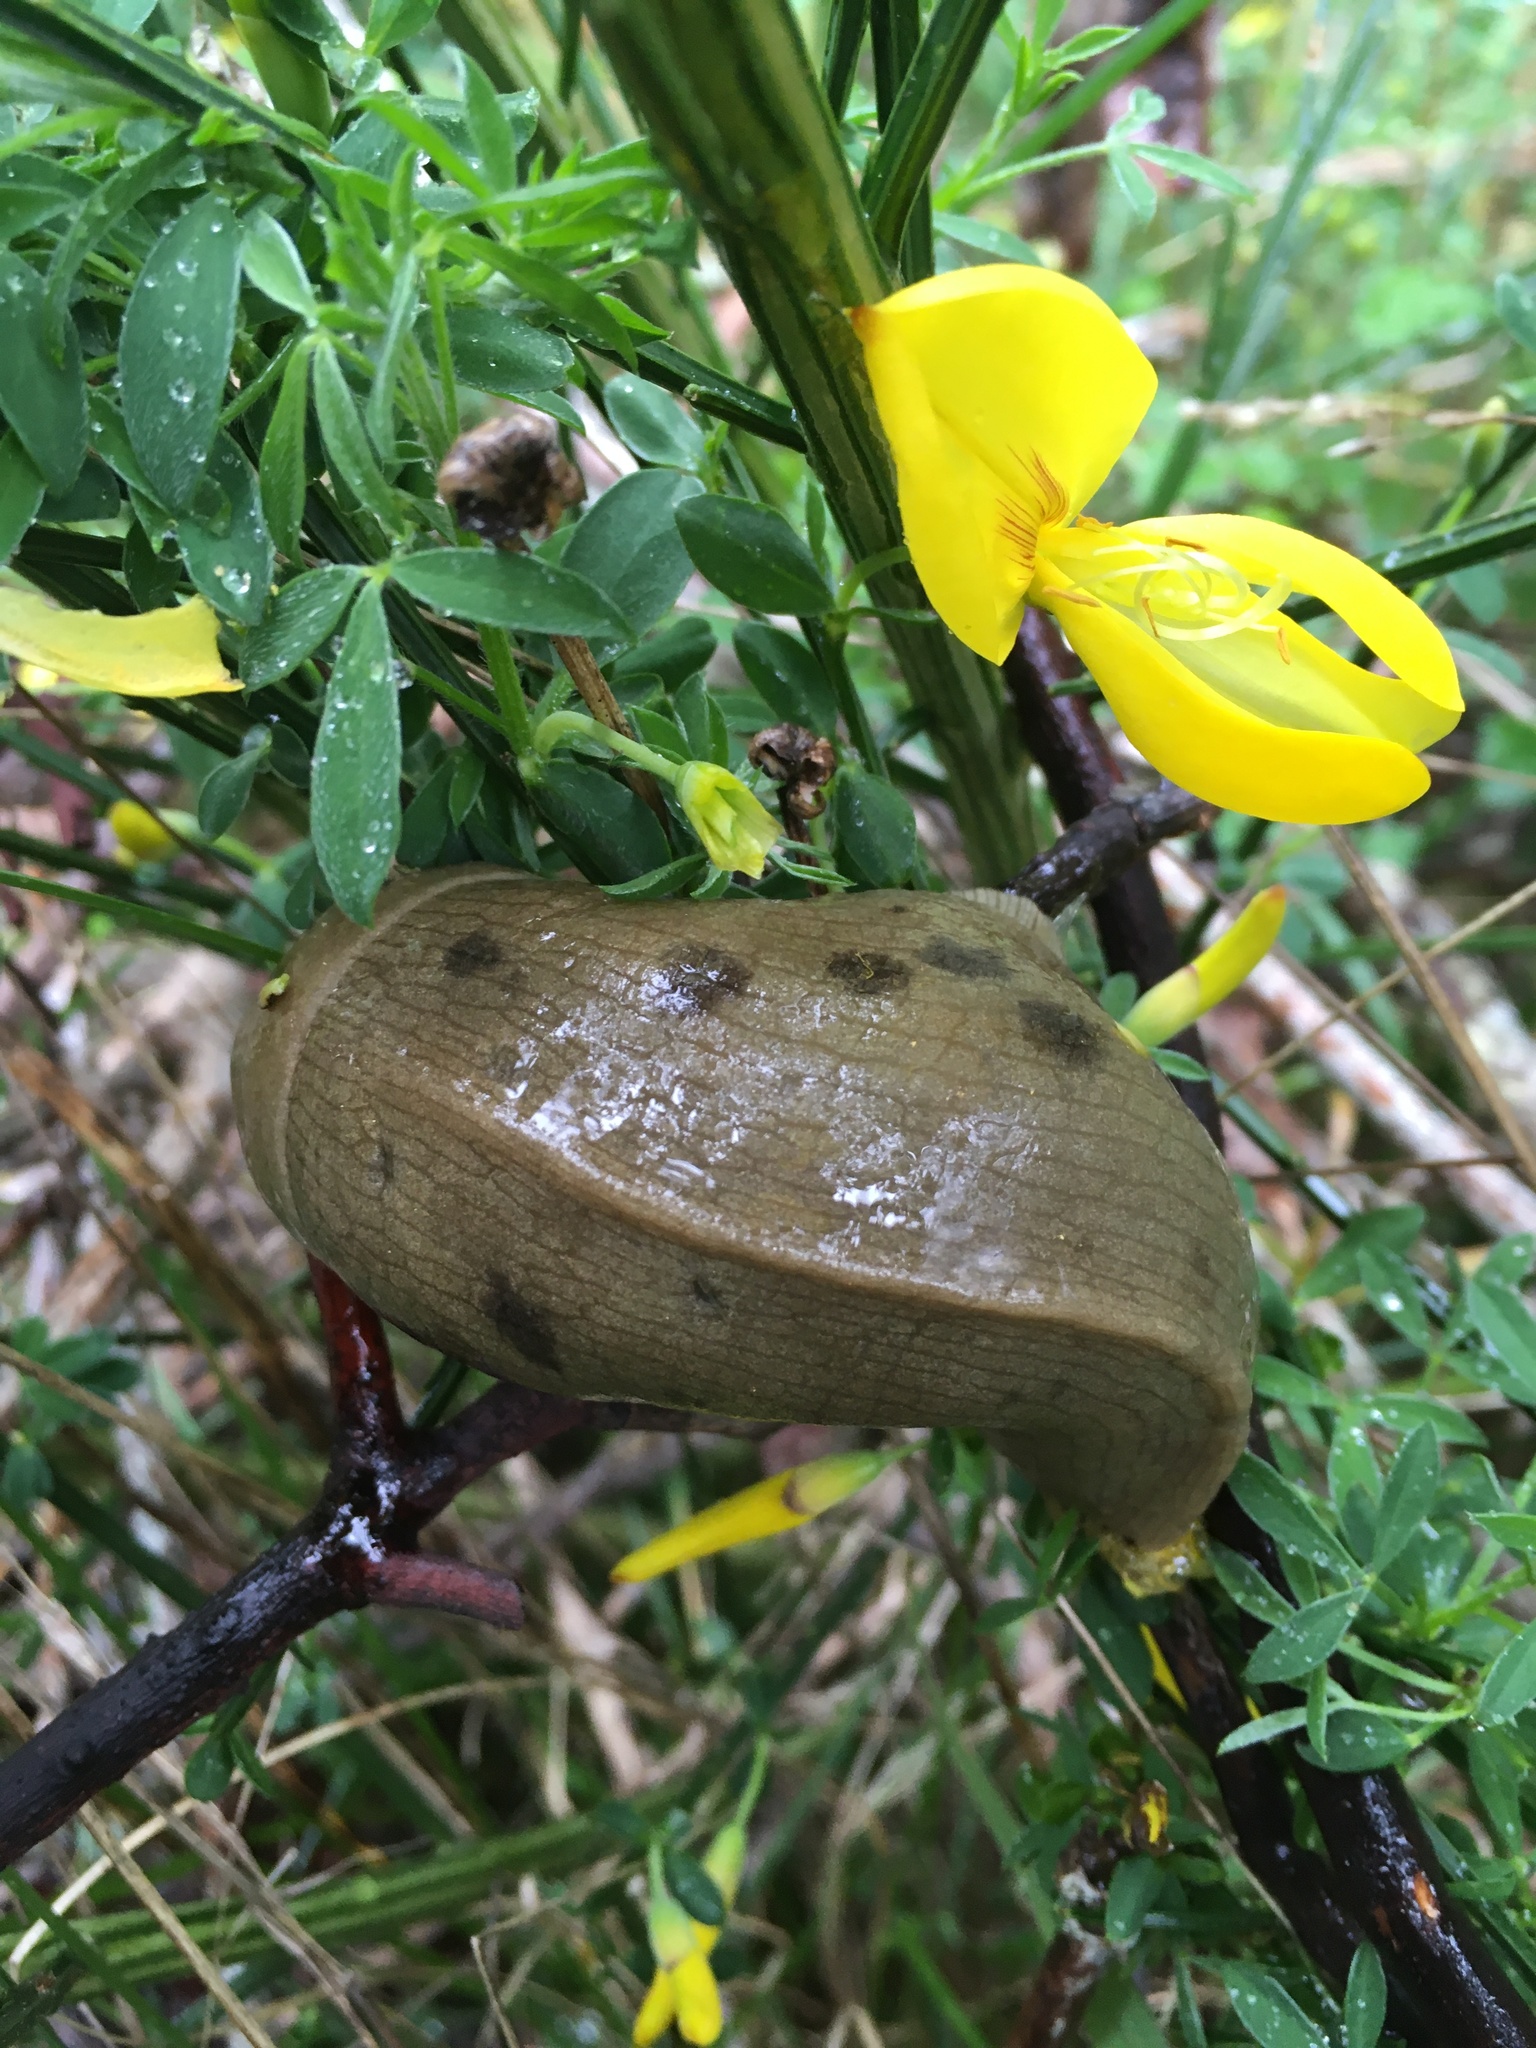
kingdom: Animalia
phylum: Mollusca
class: Gastropoda
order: Stylommatophora
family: Ariolimacidae
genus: Ariolimax
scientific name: Ariolimax columbianus
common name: Pacific banana slug
